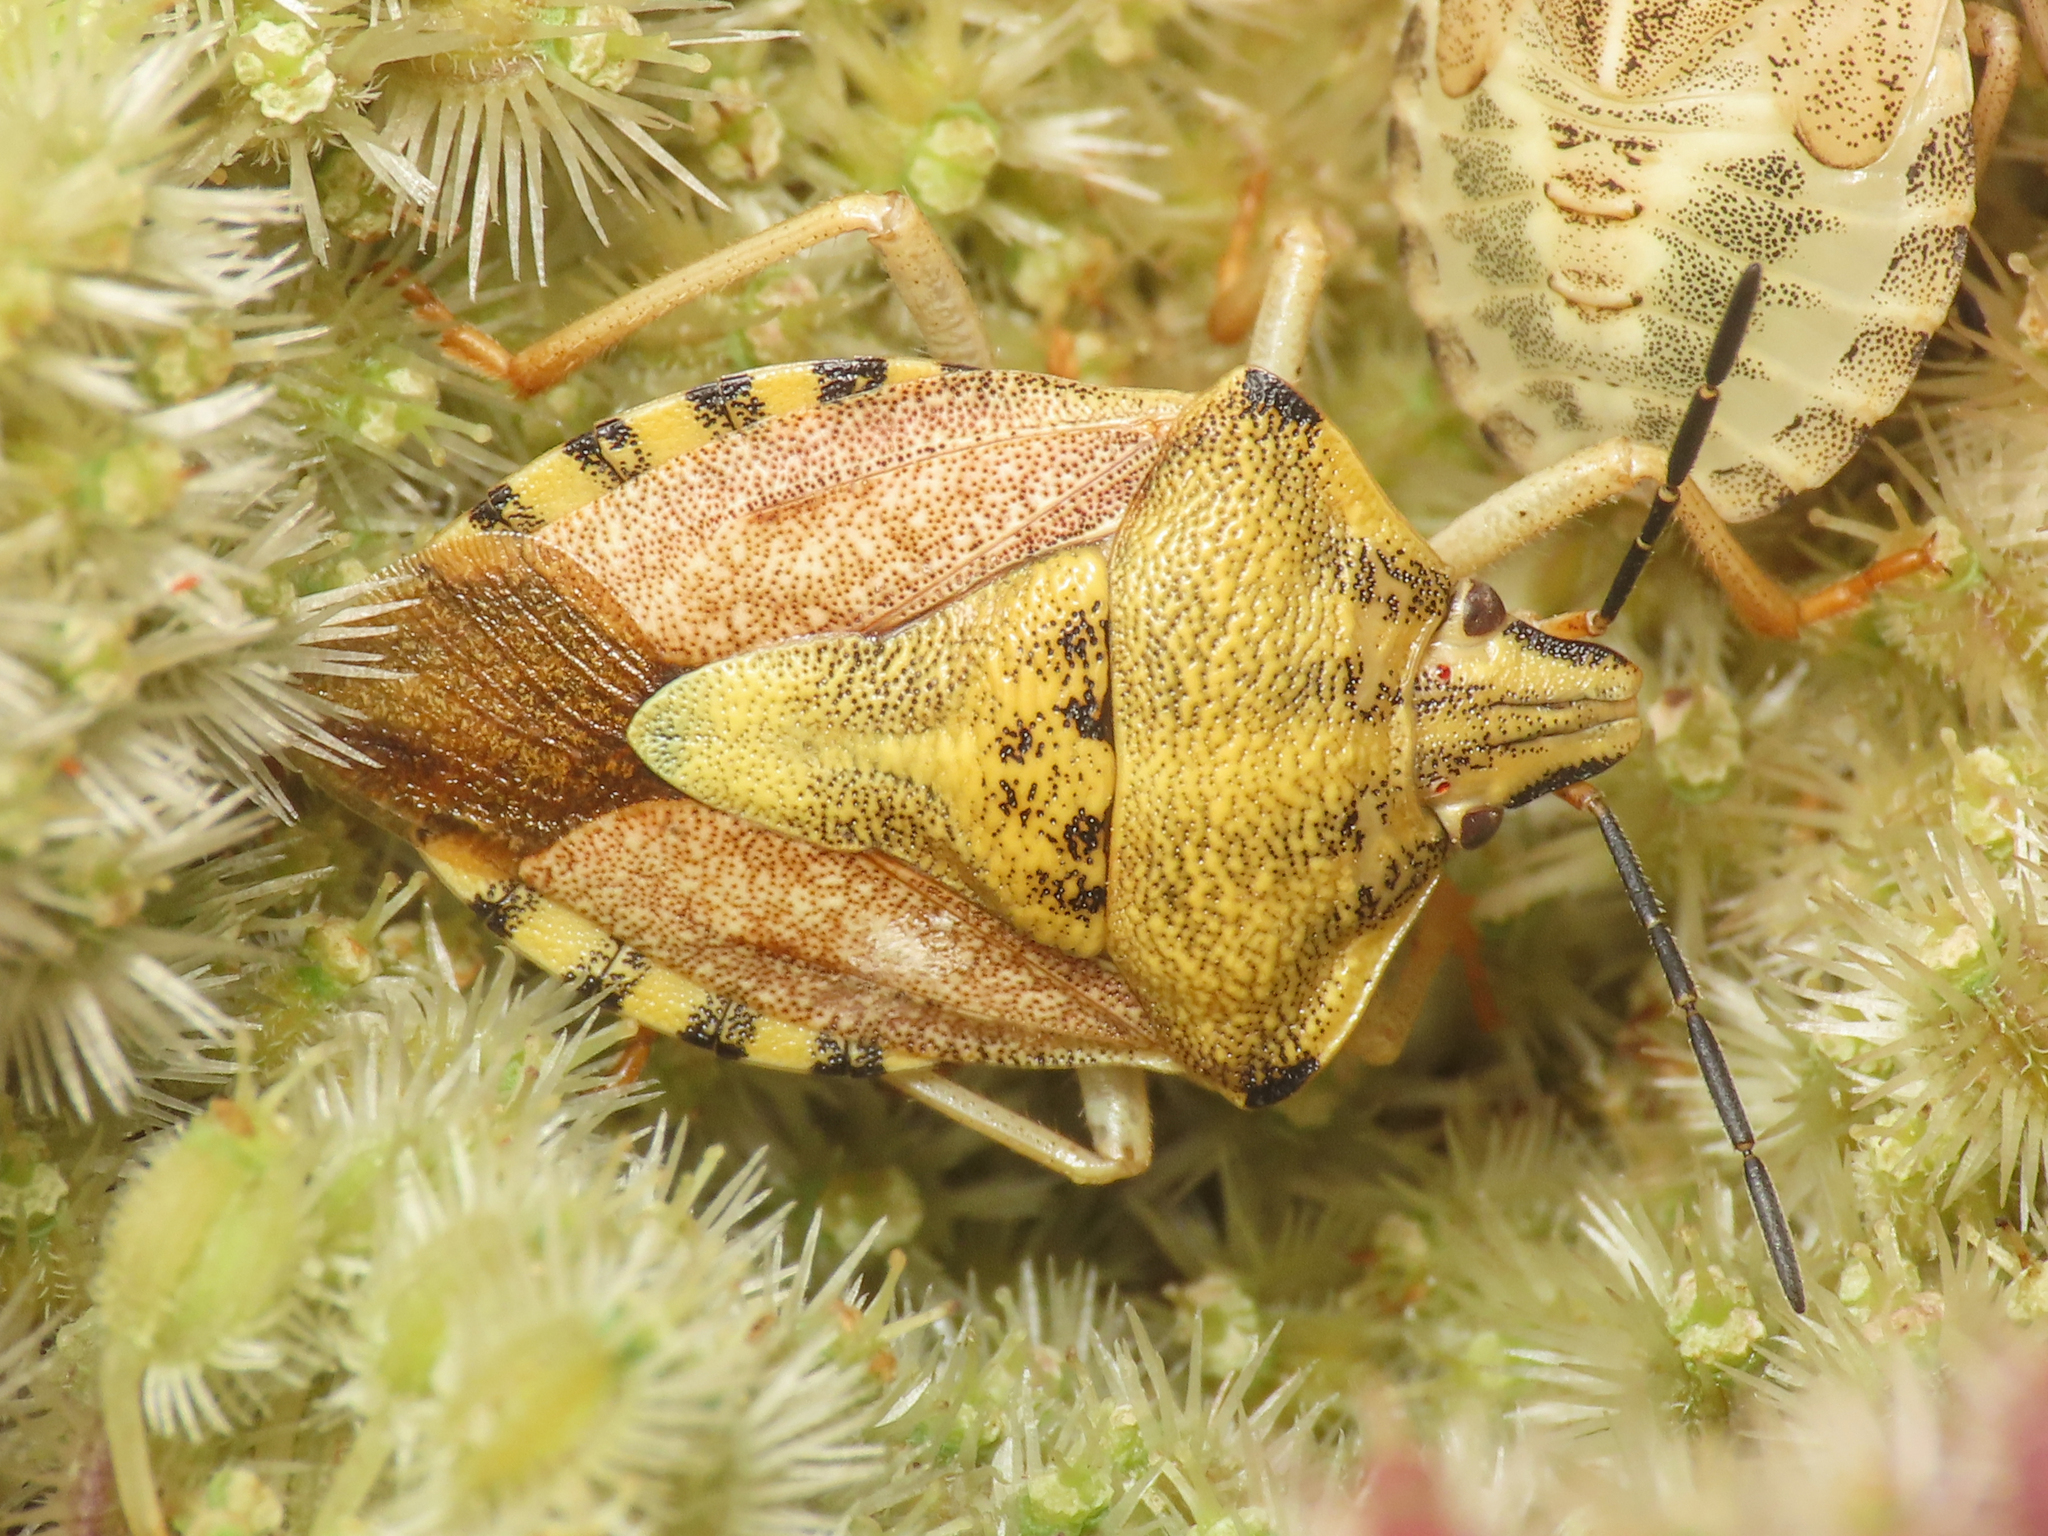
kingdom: Animalia
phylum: Arthropoda
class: Insecta
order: Hemiptera
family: Pentatomidae
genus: Carpocoris
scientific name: Carpocoris purpureipennis
